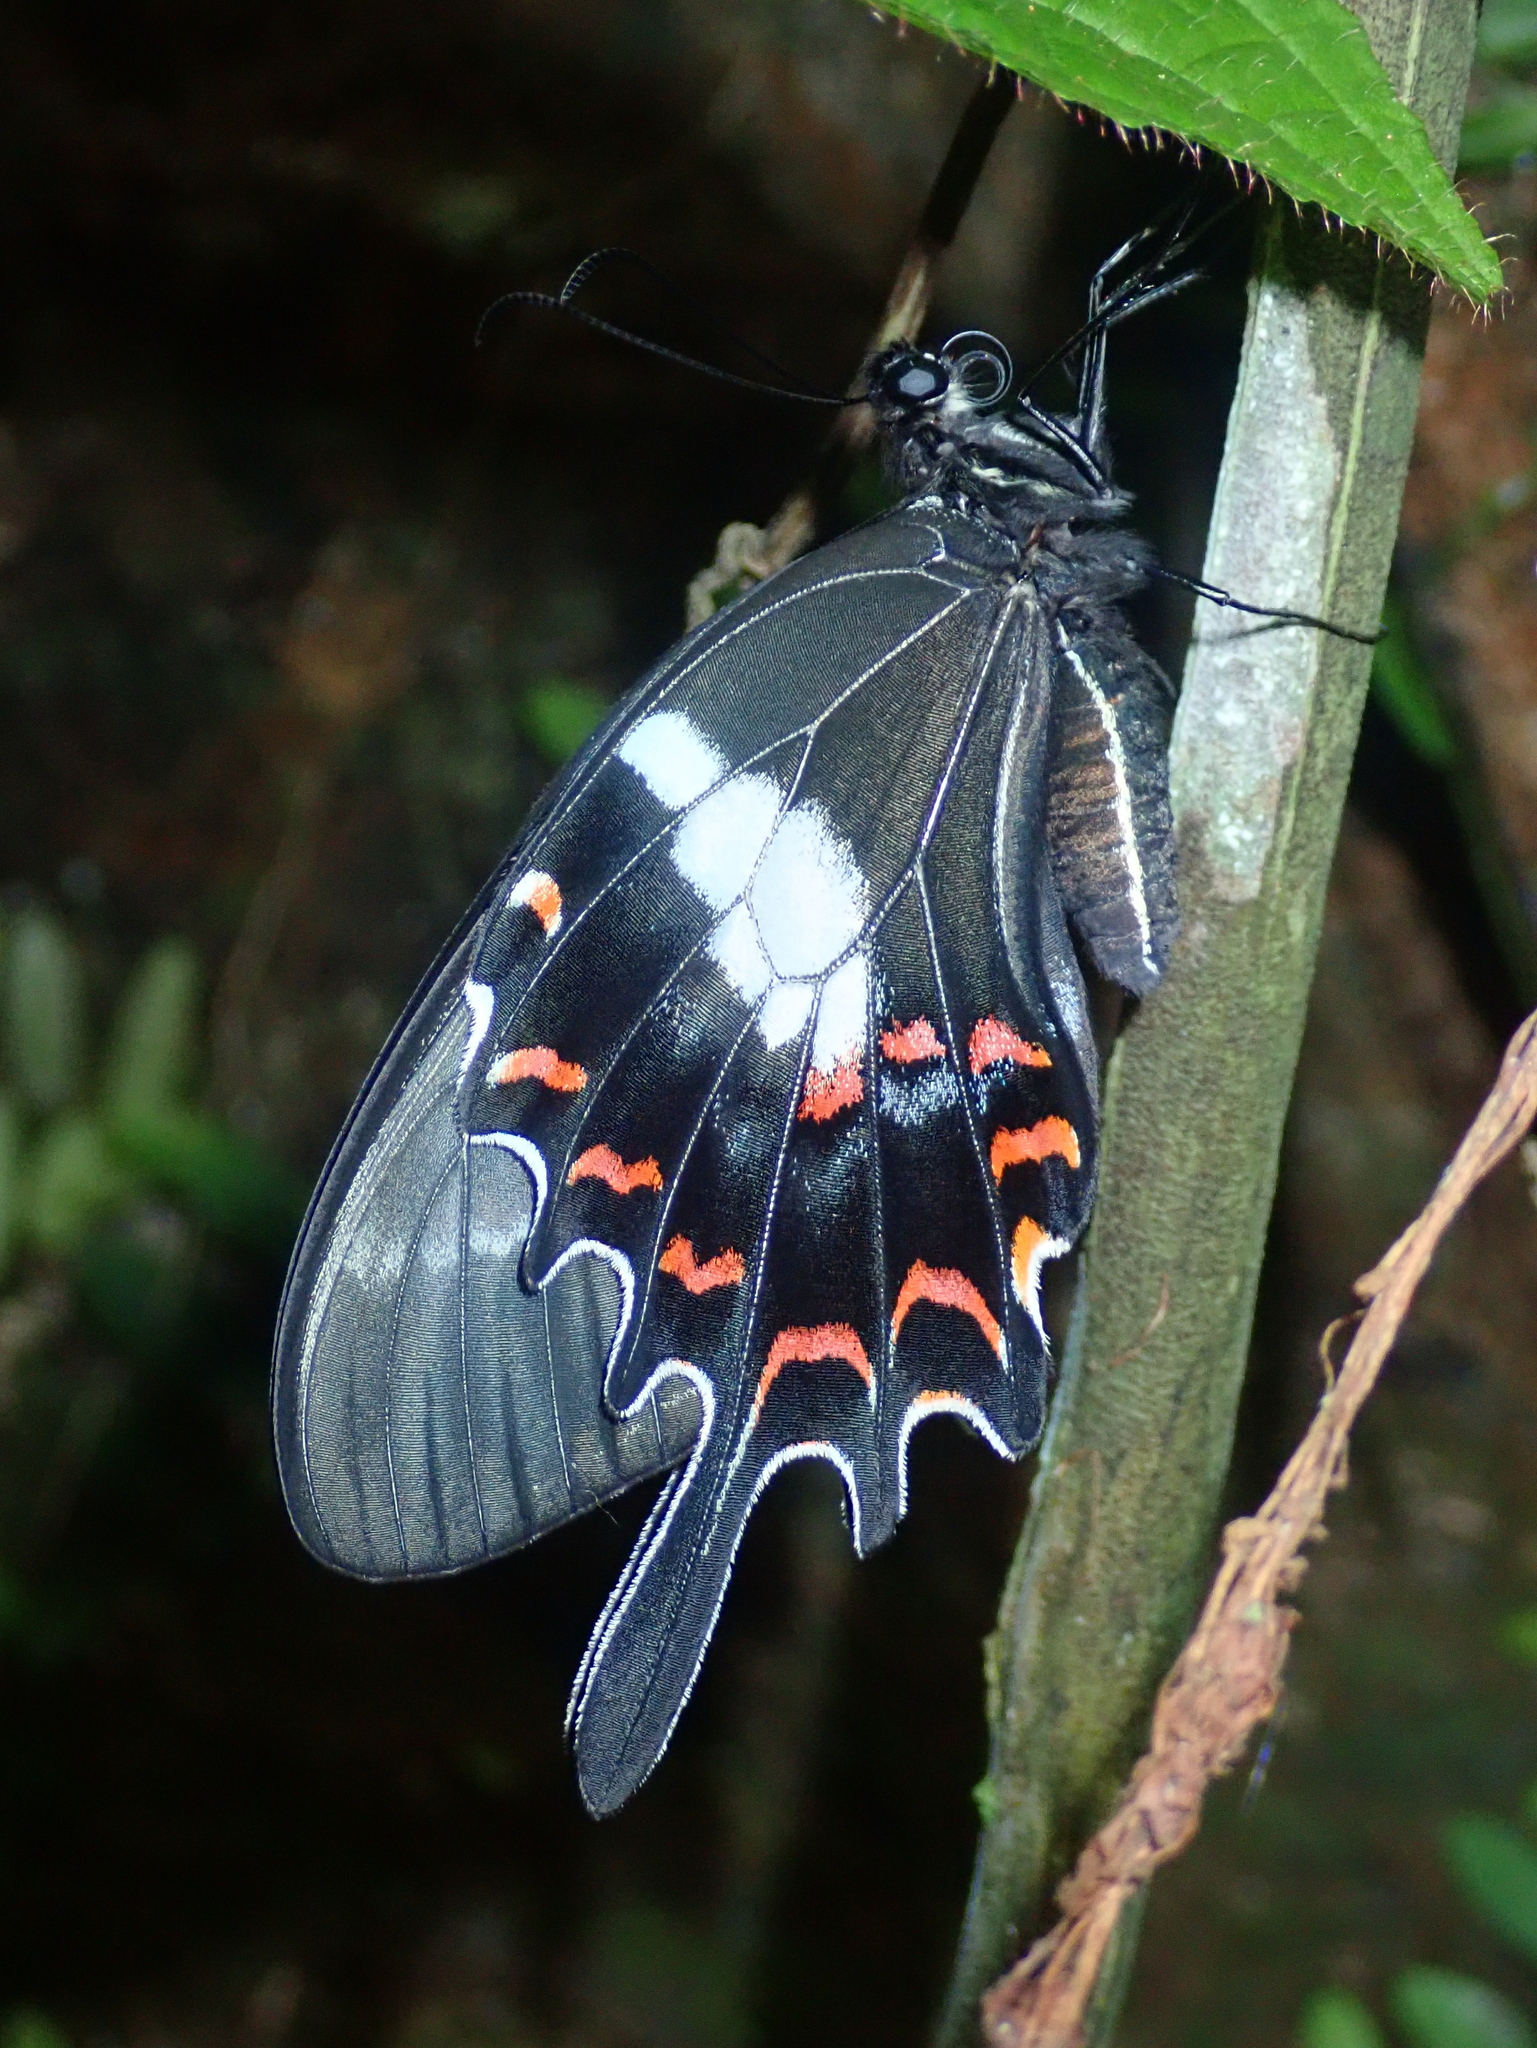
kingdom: Animalia
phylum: Arthropoda
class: Insecta
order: Lepidoptera
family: Papilionidae
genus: Heraclides
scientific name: Heraclides hectorides
